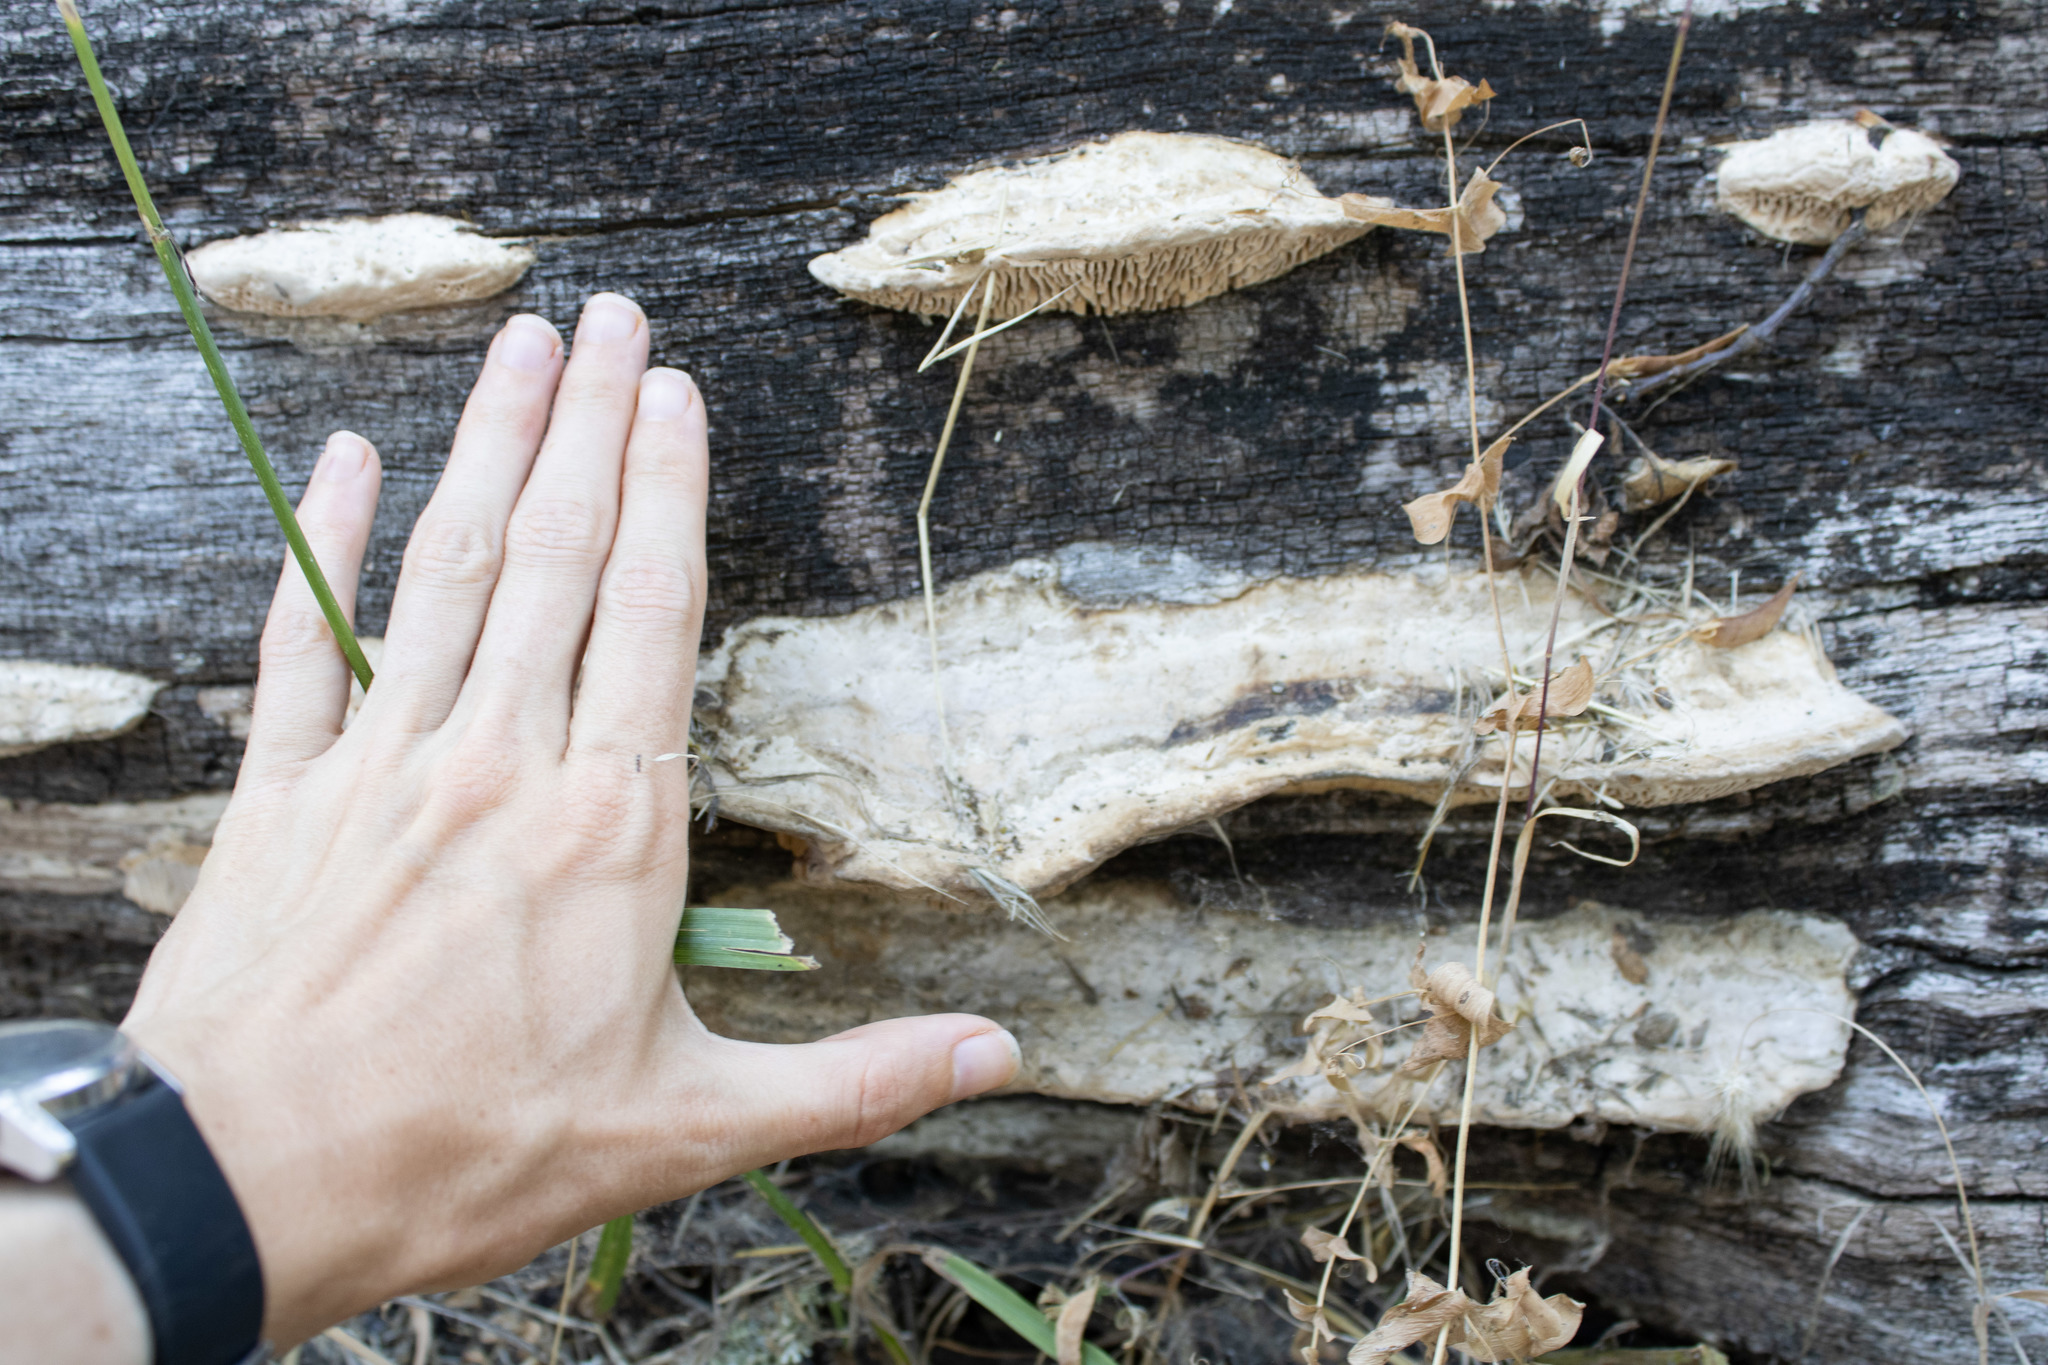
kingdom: Fungi
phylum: Basidiomycota
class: Agaricomycetes
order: Polyporales
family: Fomitopsidaceae
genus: Fomitopsis
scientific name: Fomitopsis
